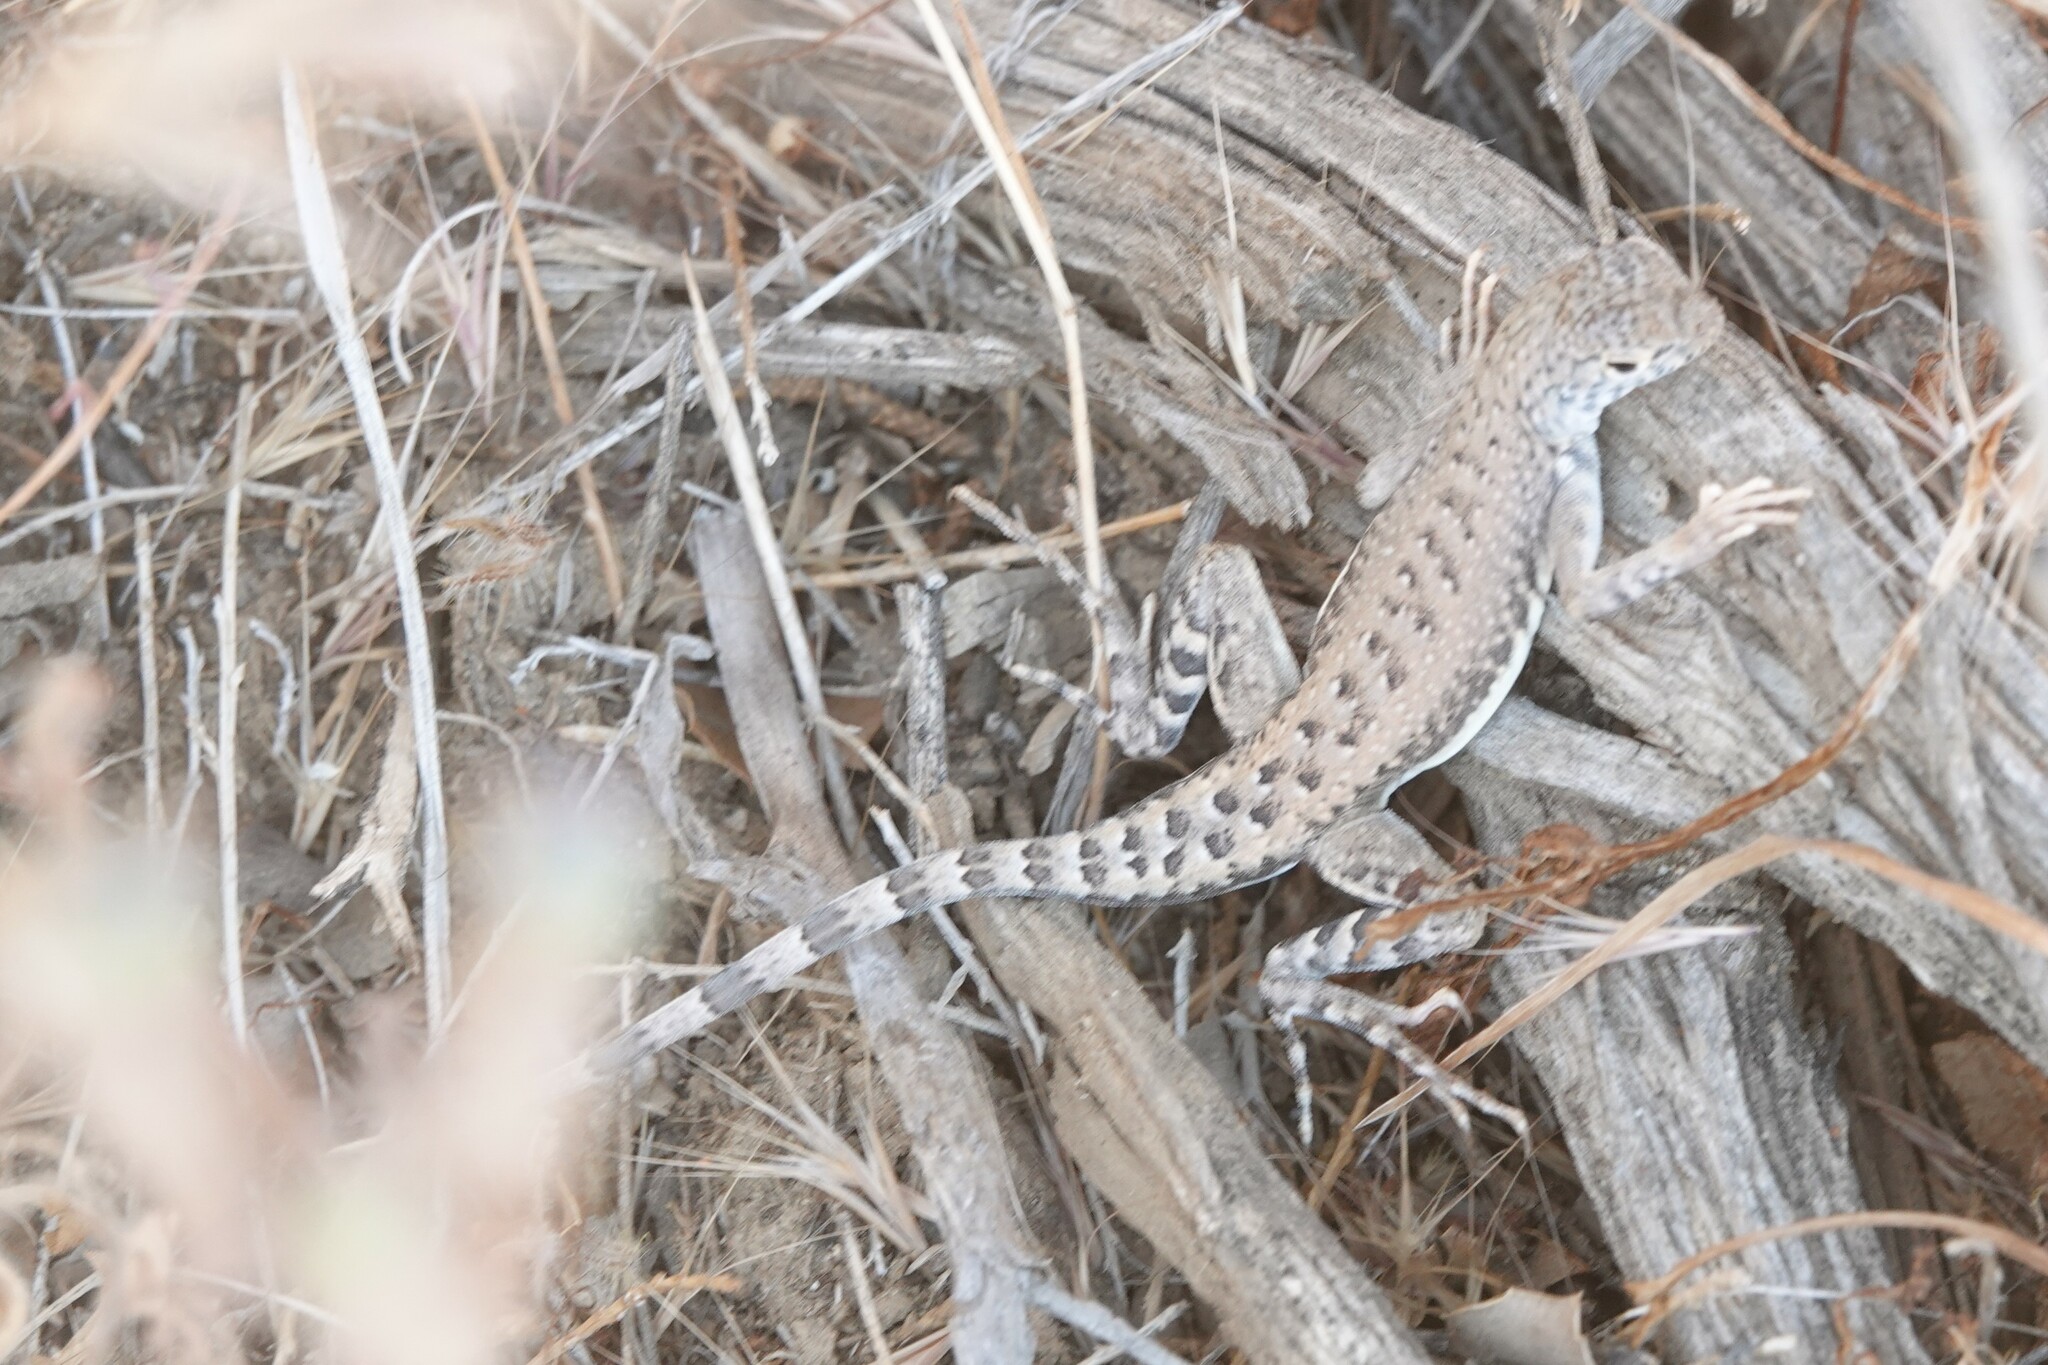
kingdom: Animalia
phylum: Chordata
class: Squamata
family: Phrynosomatidae
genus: Callisaurus
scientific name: Callisaurus draconoides
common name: Zebra-tailed lizard
